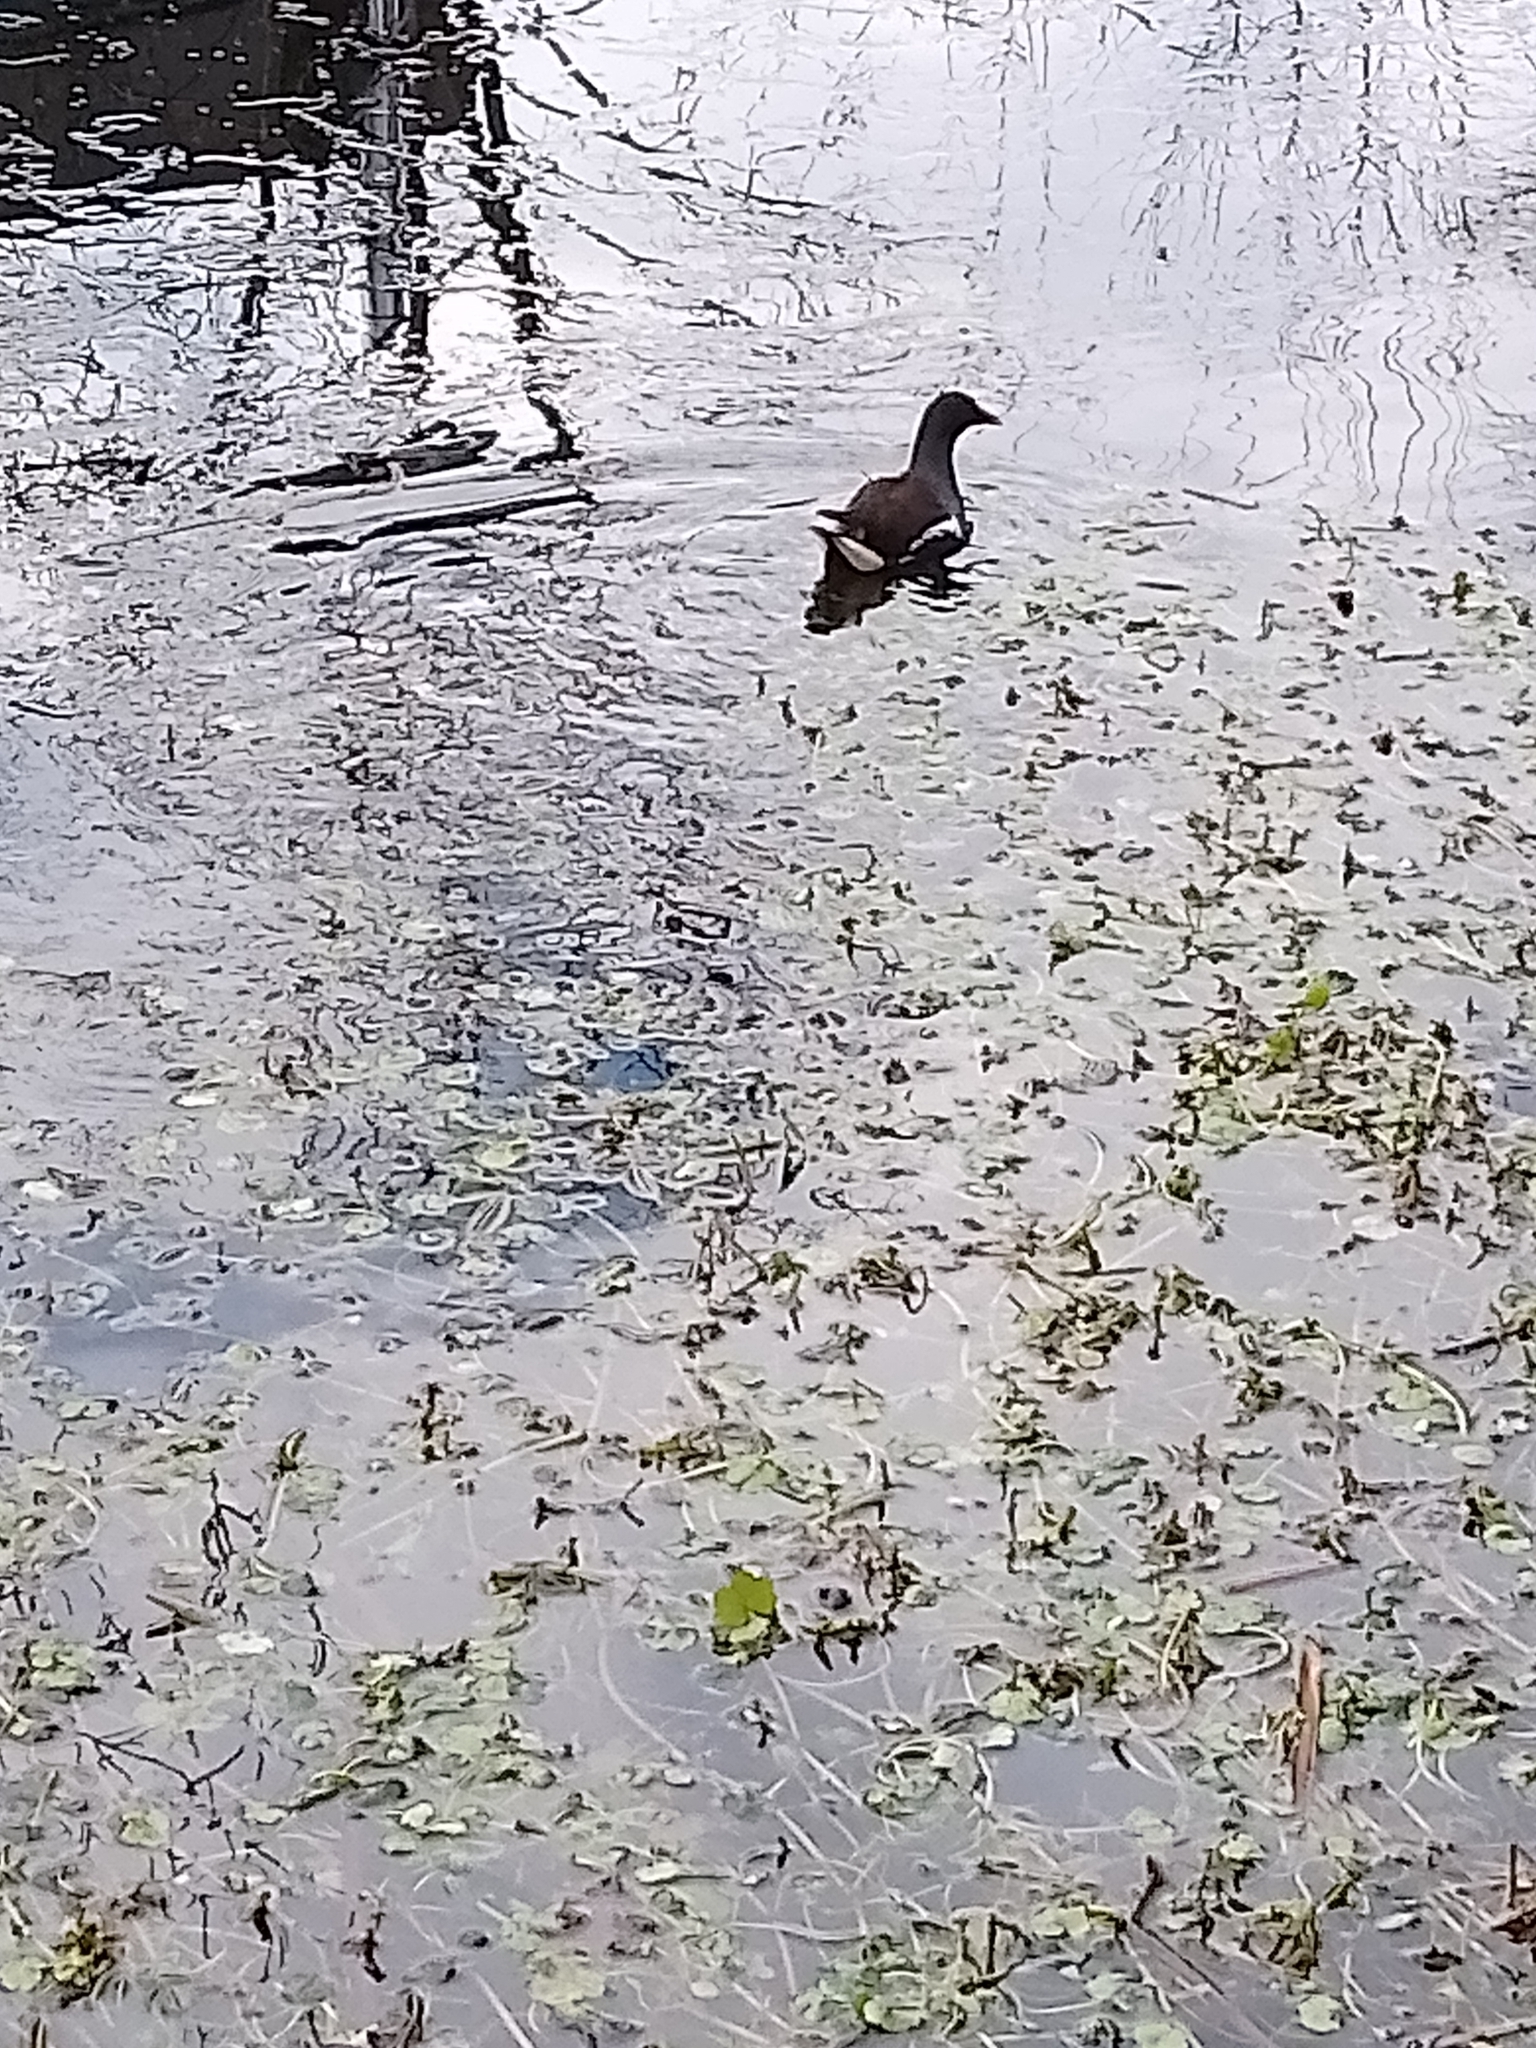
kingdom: Animalia
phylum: Chordata
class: Aves
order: Gruiformes
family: Rallidae
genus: Gallinula
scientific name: Gallinula chloropus
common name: Common moorhen
